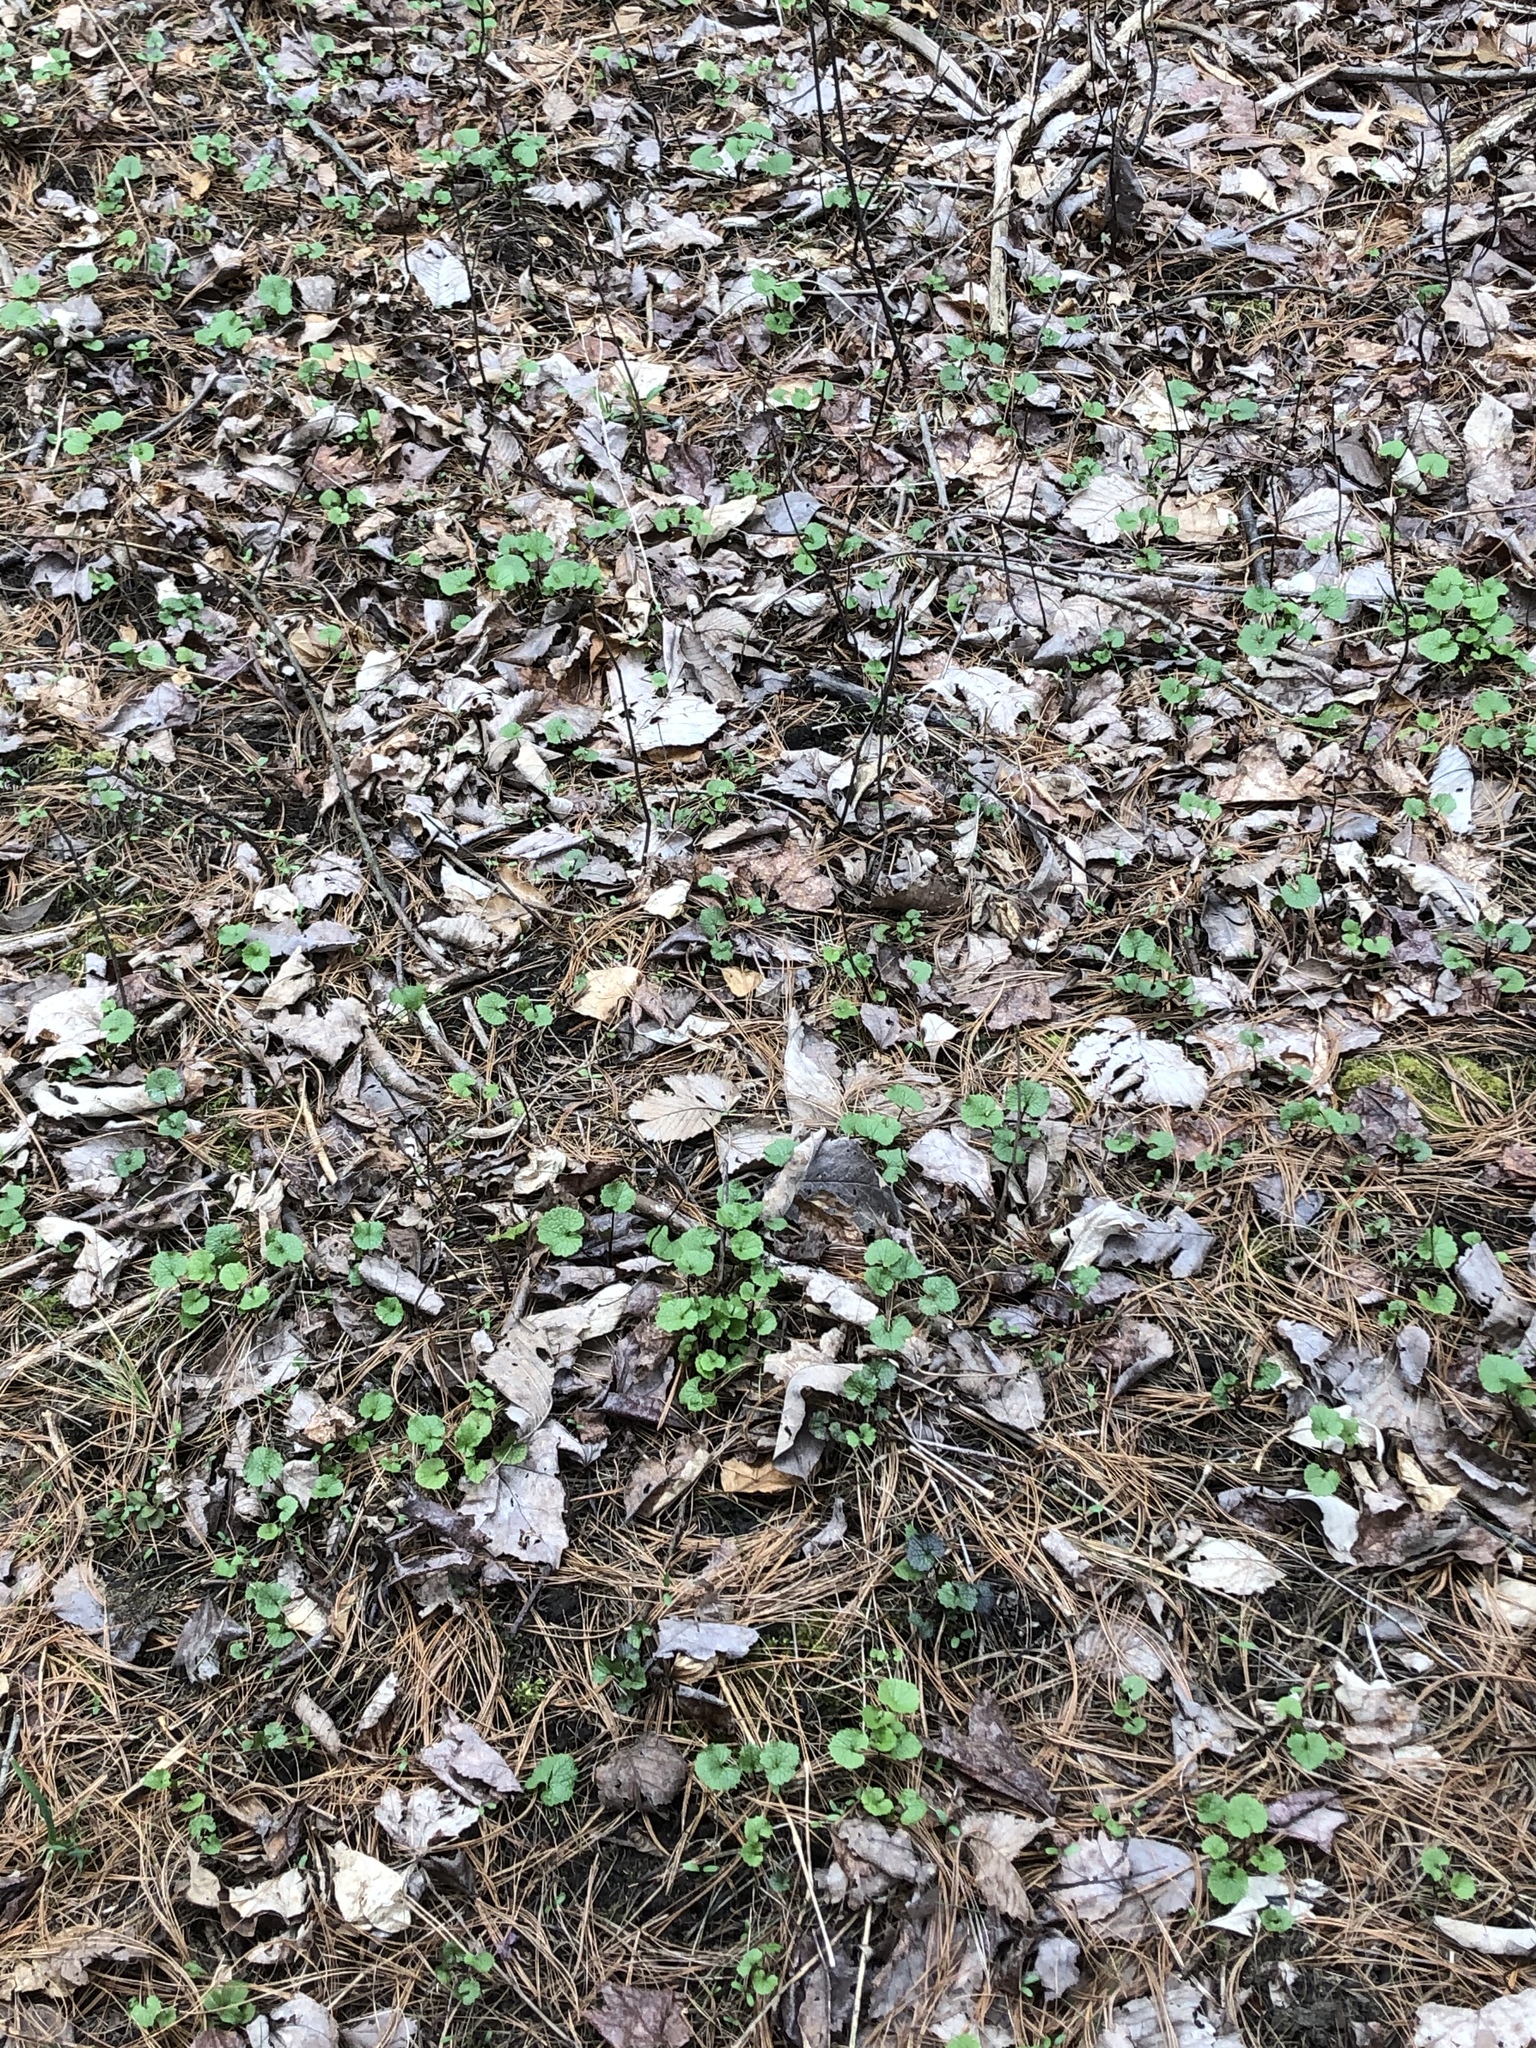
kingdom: Plantae
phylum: Tracheophyta
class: Magnoliopsida
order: Brassicales
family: Brassicaceae
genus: Alliaria
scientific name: Alliaria petiolata
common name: Garlic mustard
